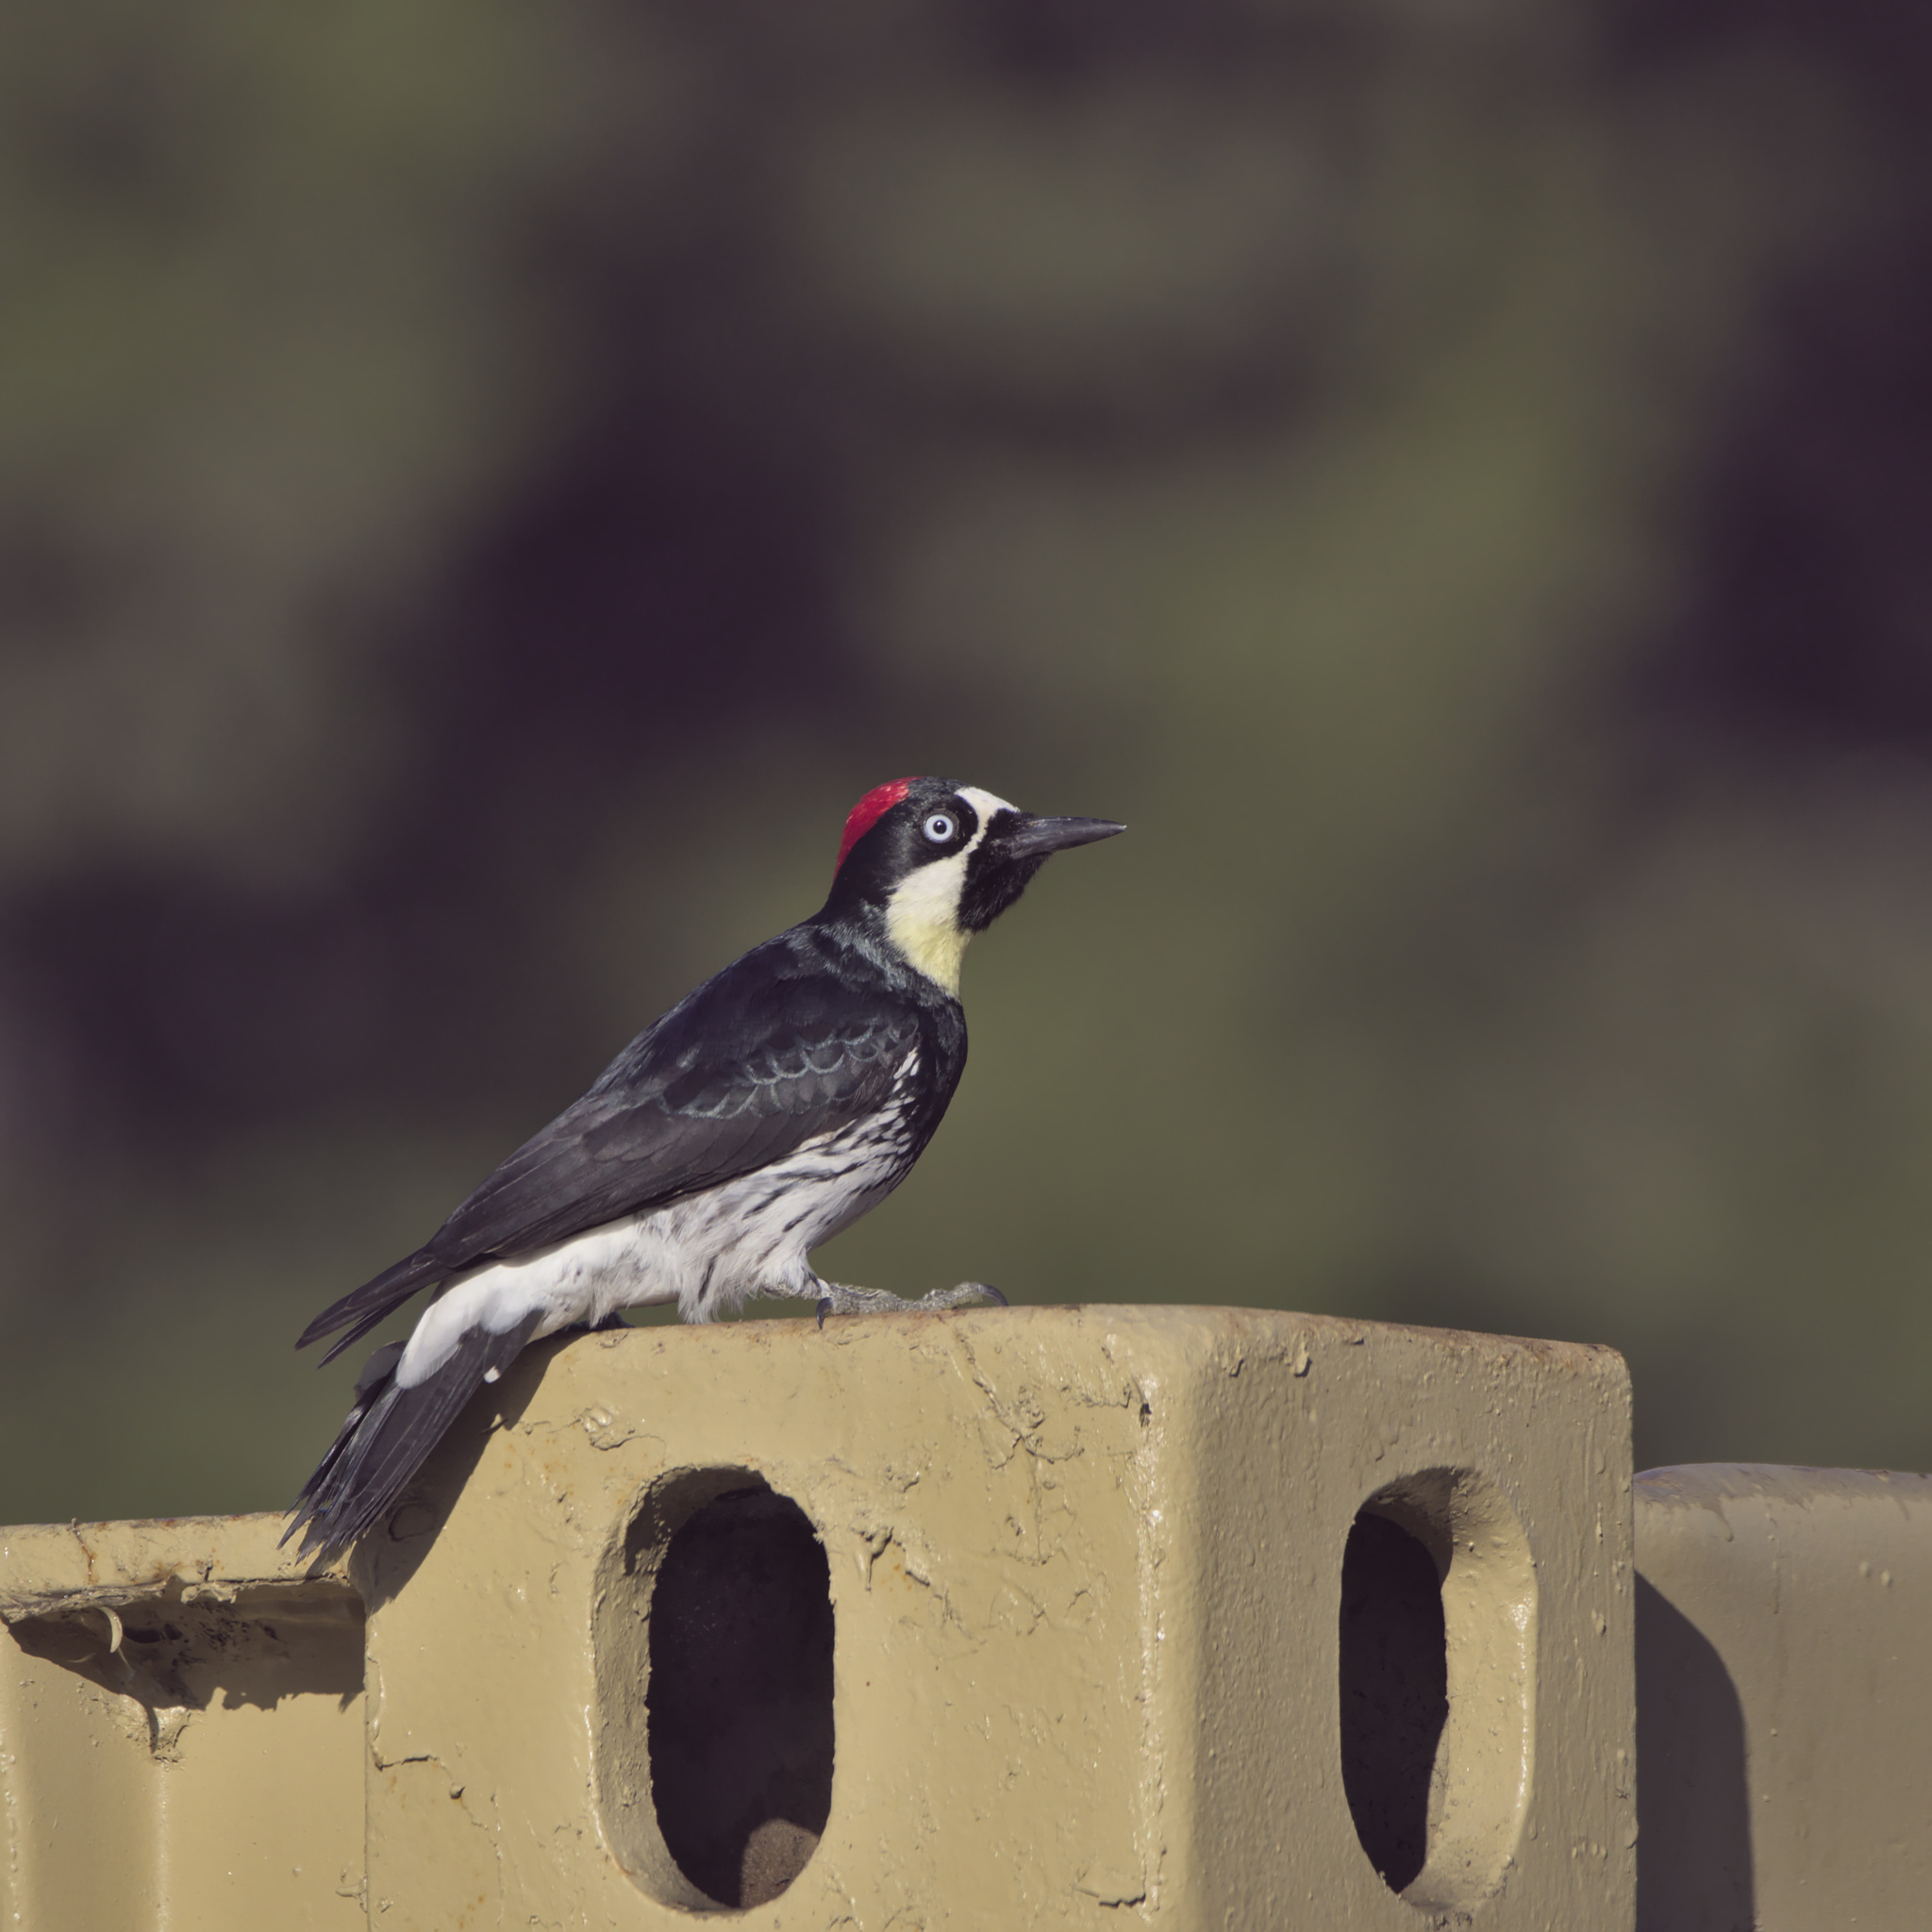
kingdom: Animalia
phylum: Chordata
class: Aves
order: Piciformes
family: Picidae
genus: Melanerpes
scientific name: Melanerpes formicivorus
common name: Acorn woodpecker
